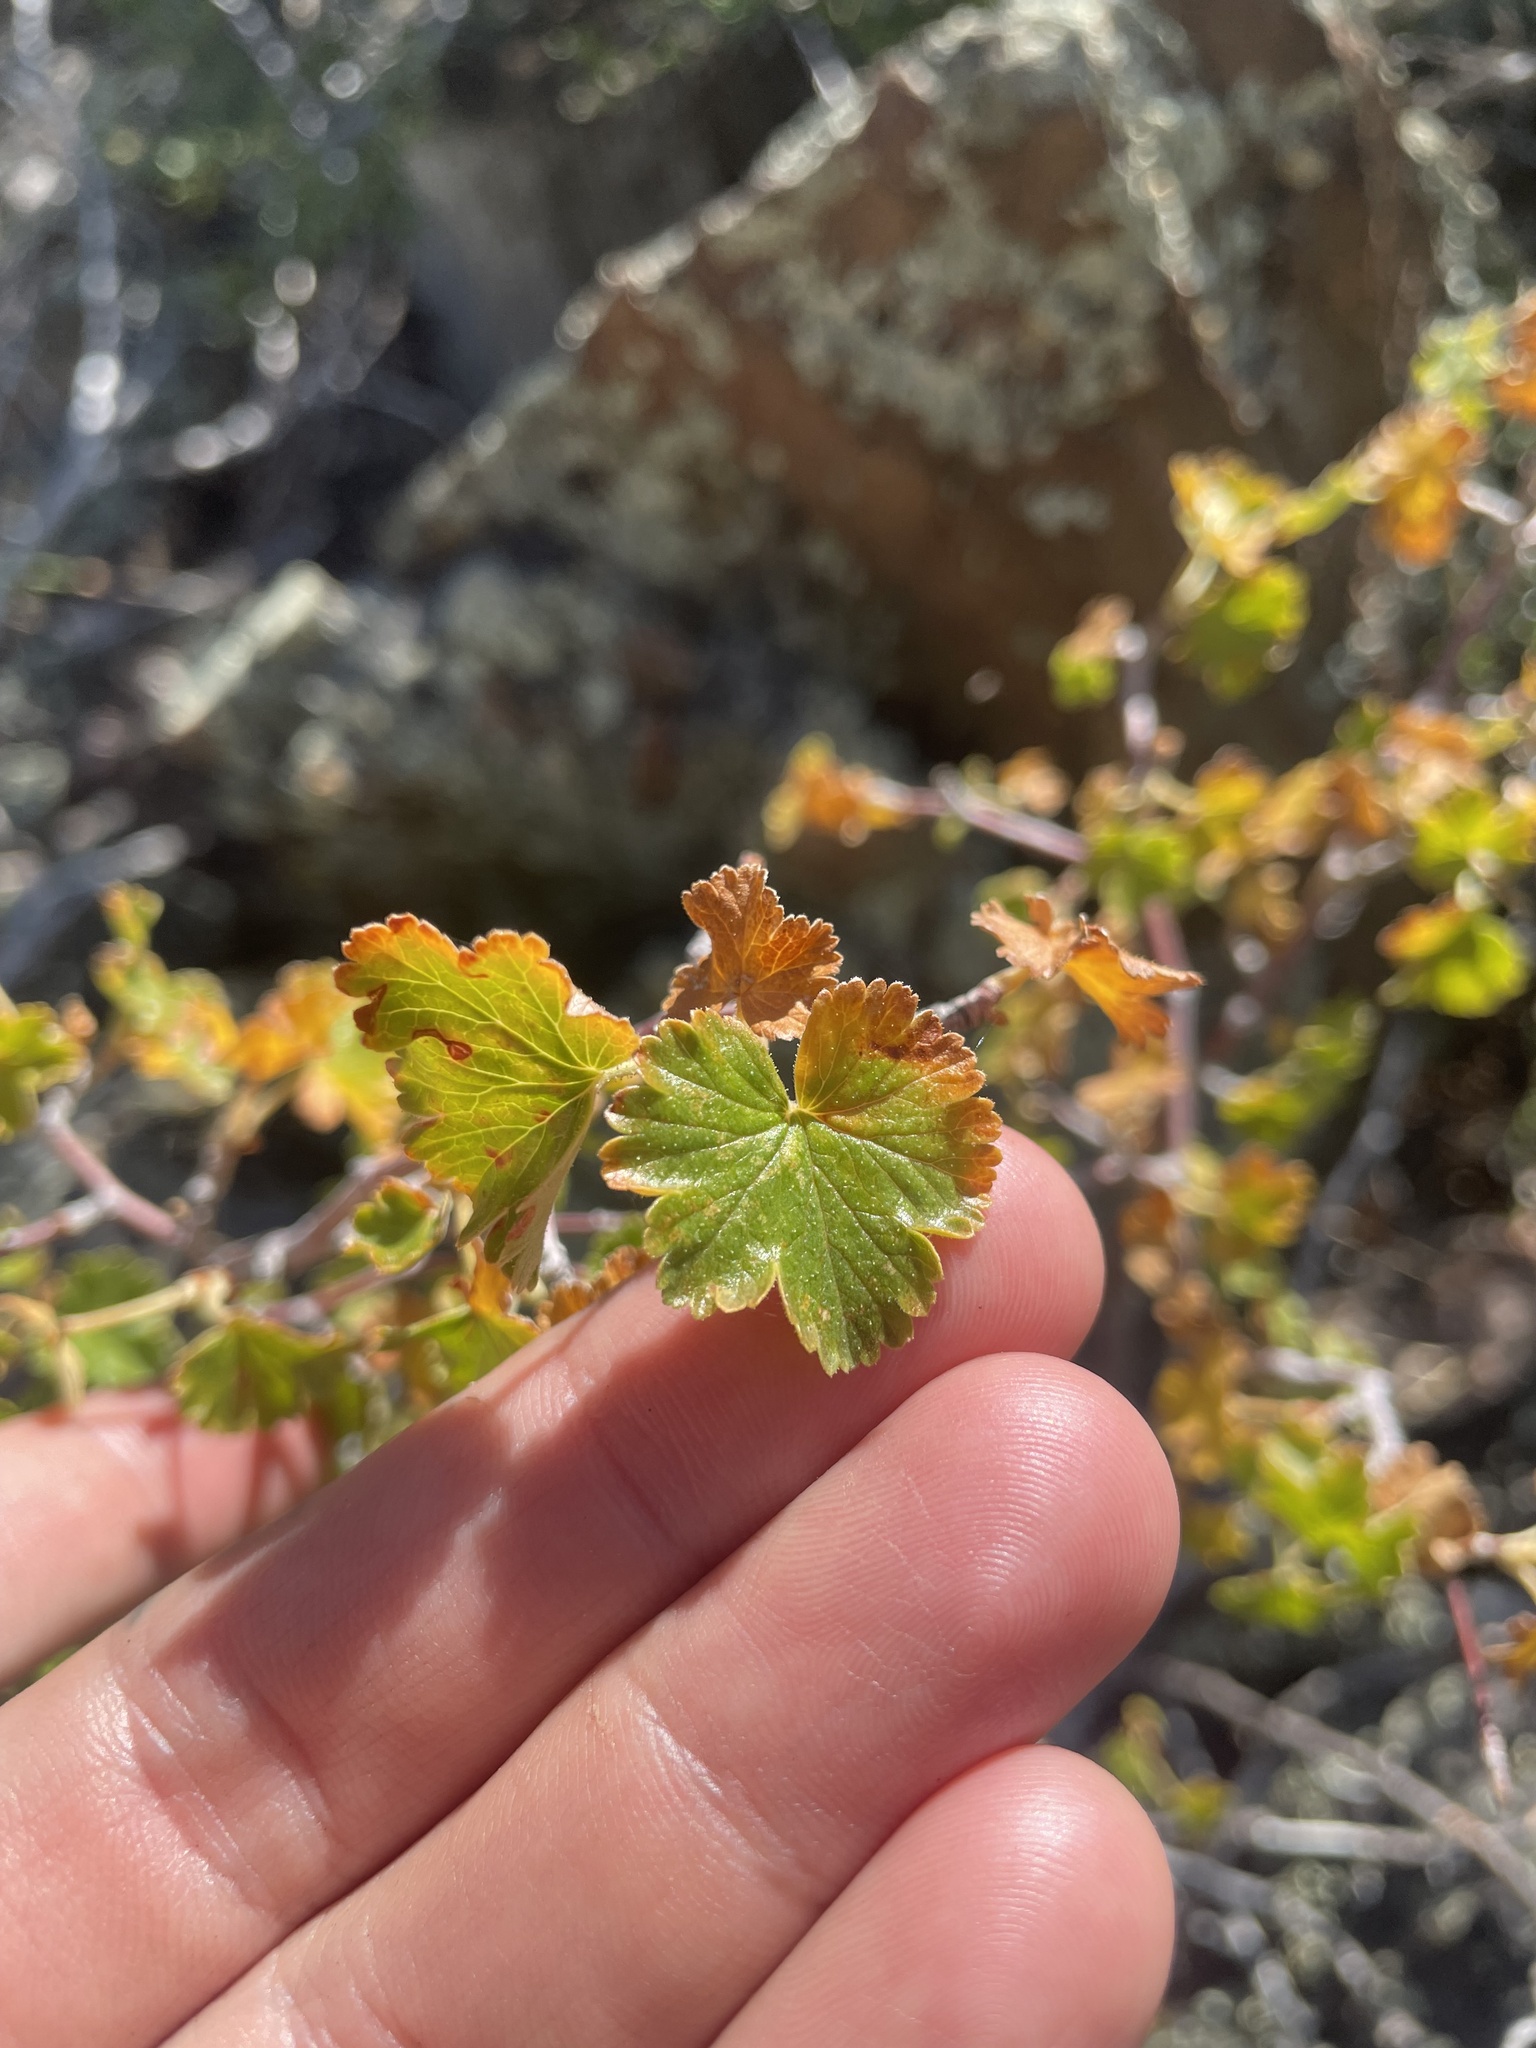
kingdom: Plantae
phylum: Tracheophyta
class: Magnoliopsida
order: Saxifragales
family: Grossulariaceae
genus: Ribes
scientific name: Ribes cereum
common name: Wax currant
